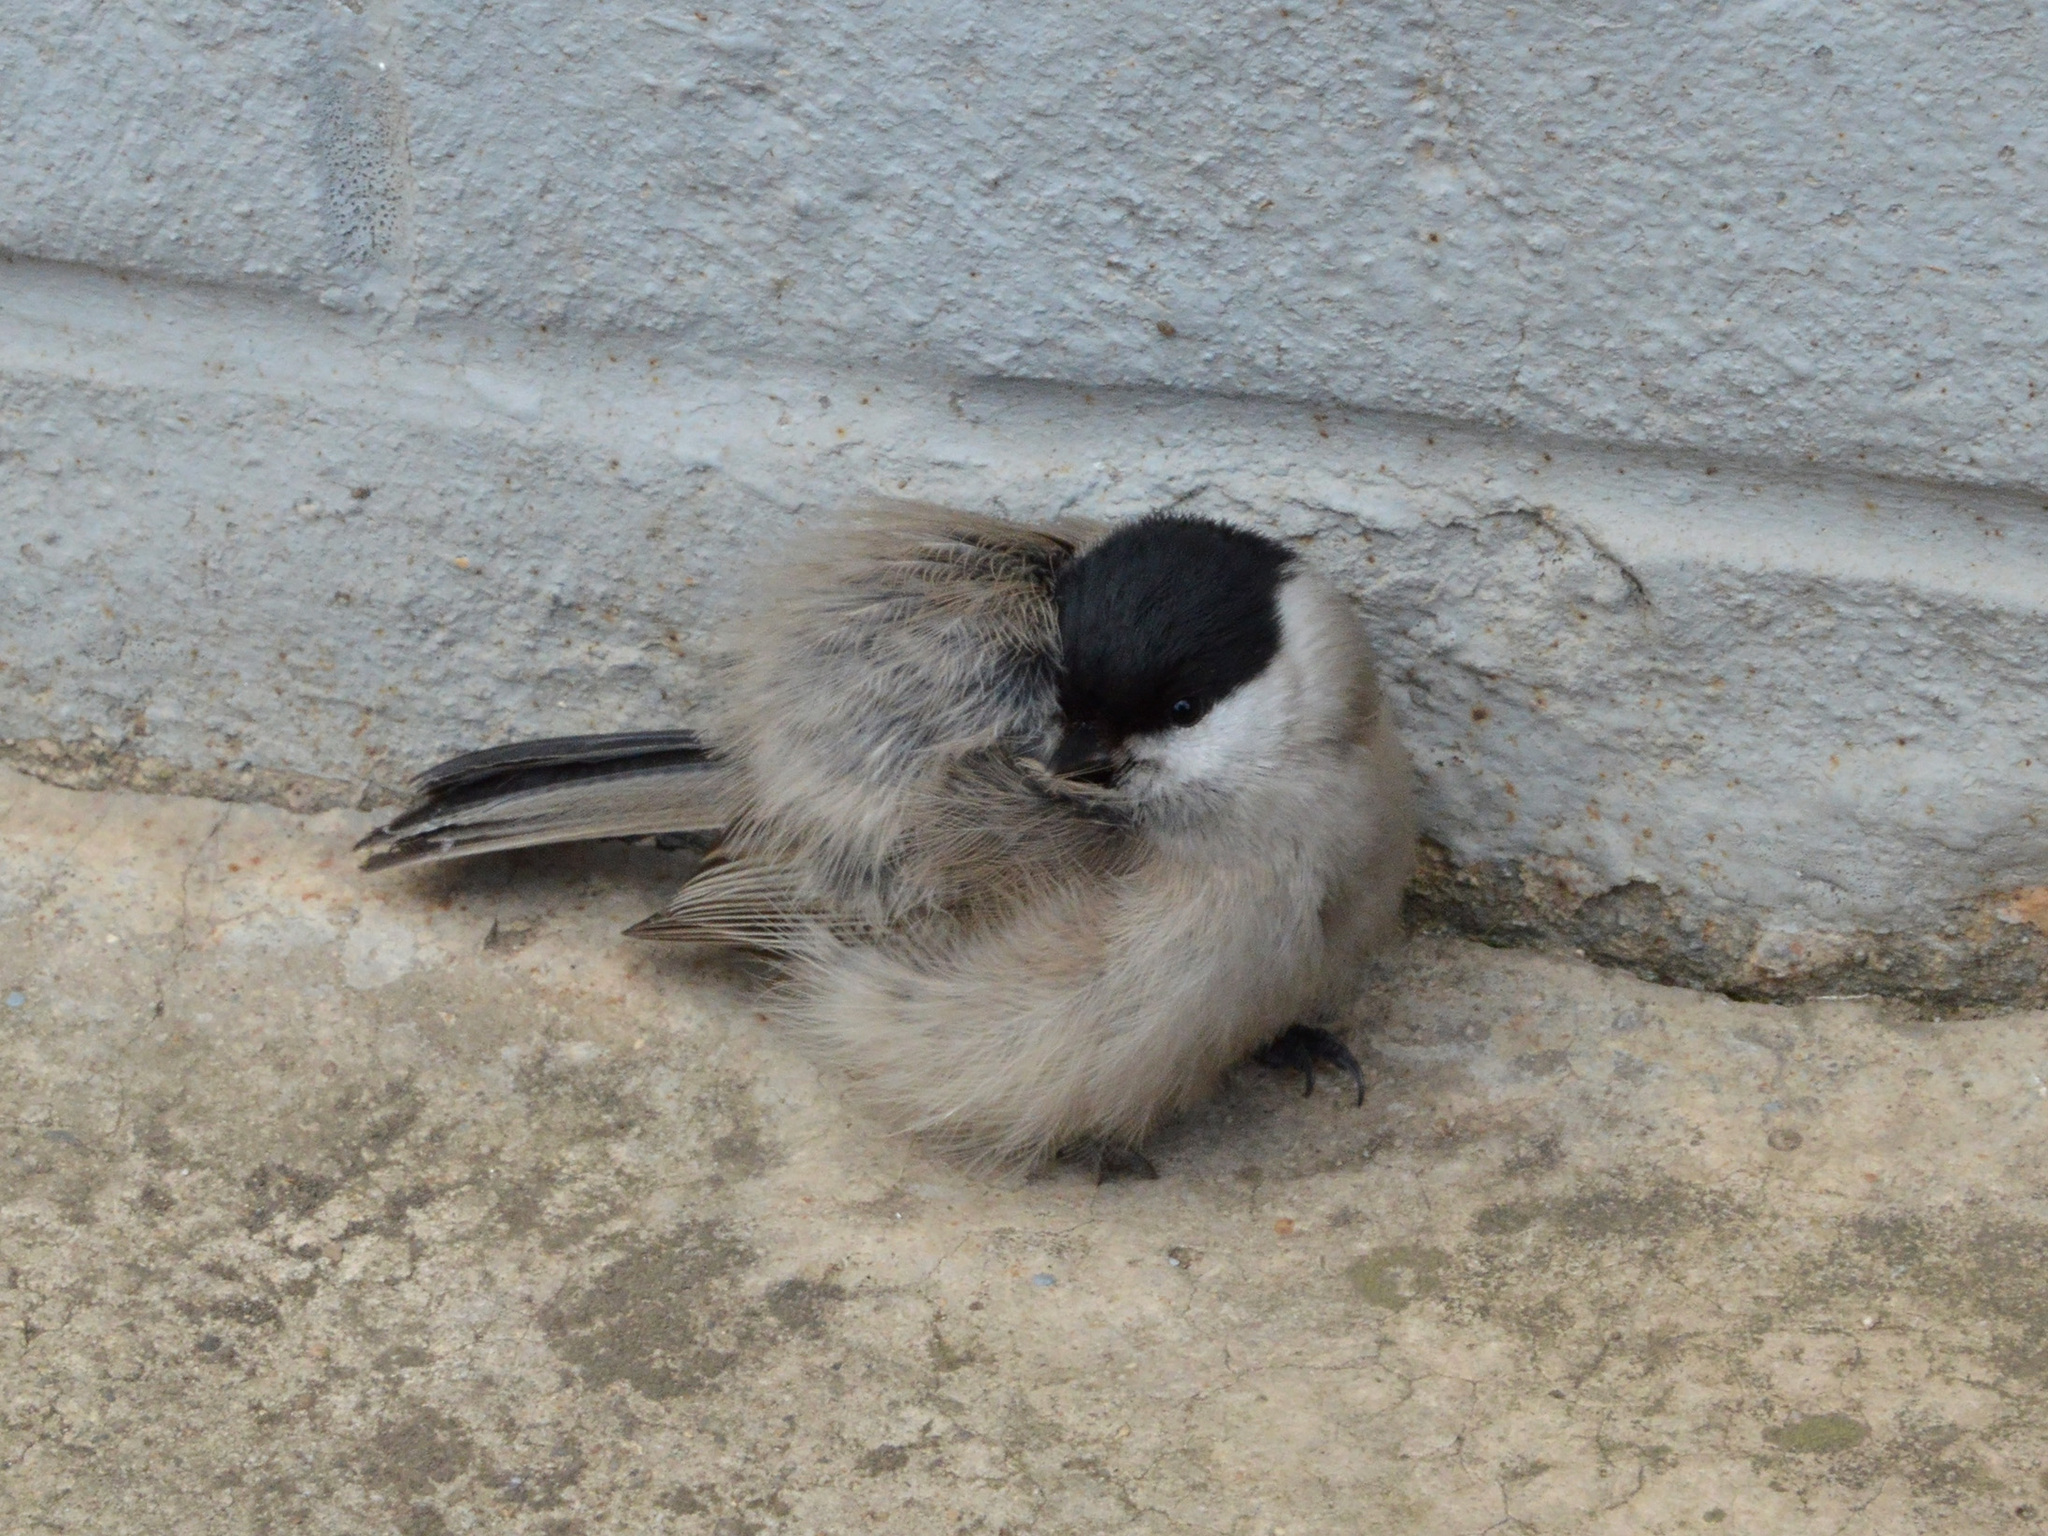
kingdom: Animalia
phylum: Chordata
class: Aves
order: Passeriformes
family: Paridae
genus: Poecile
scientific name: Poecile palustris
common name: Marsh tit
